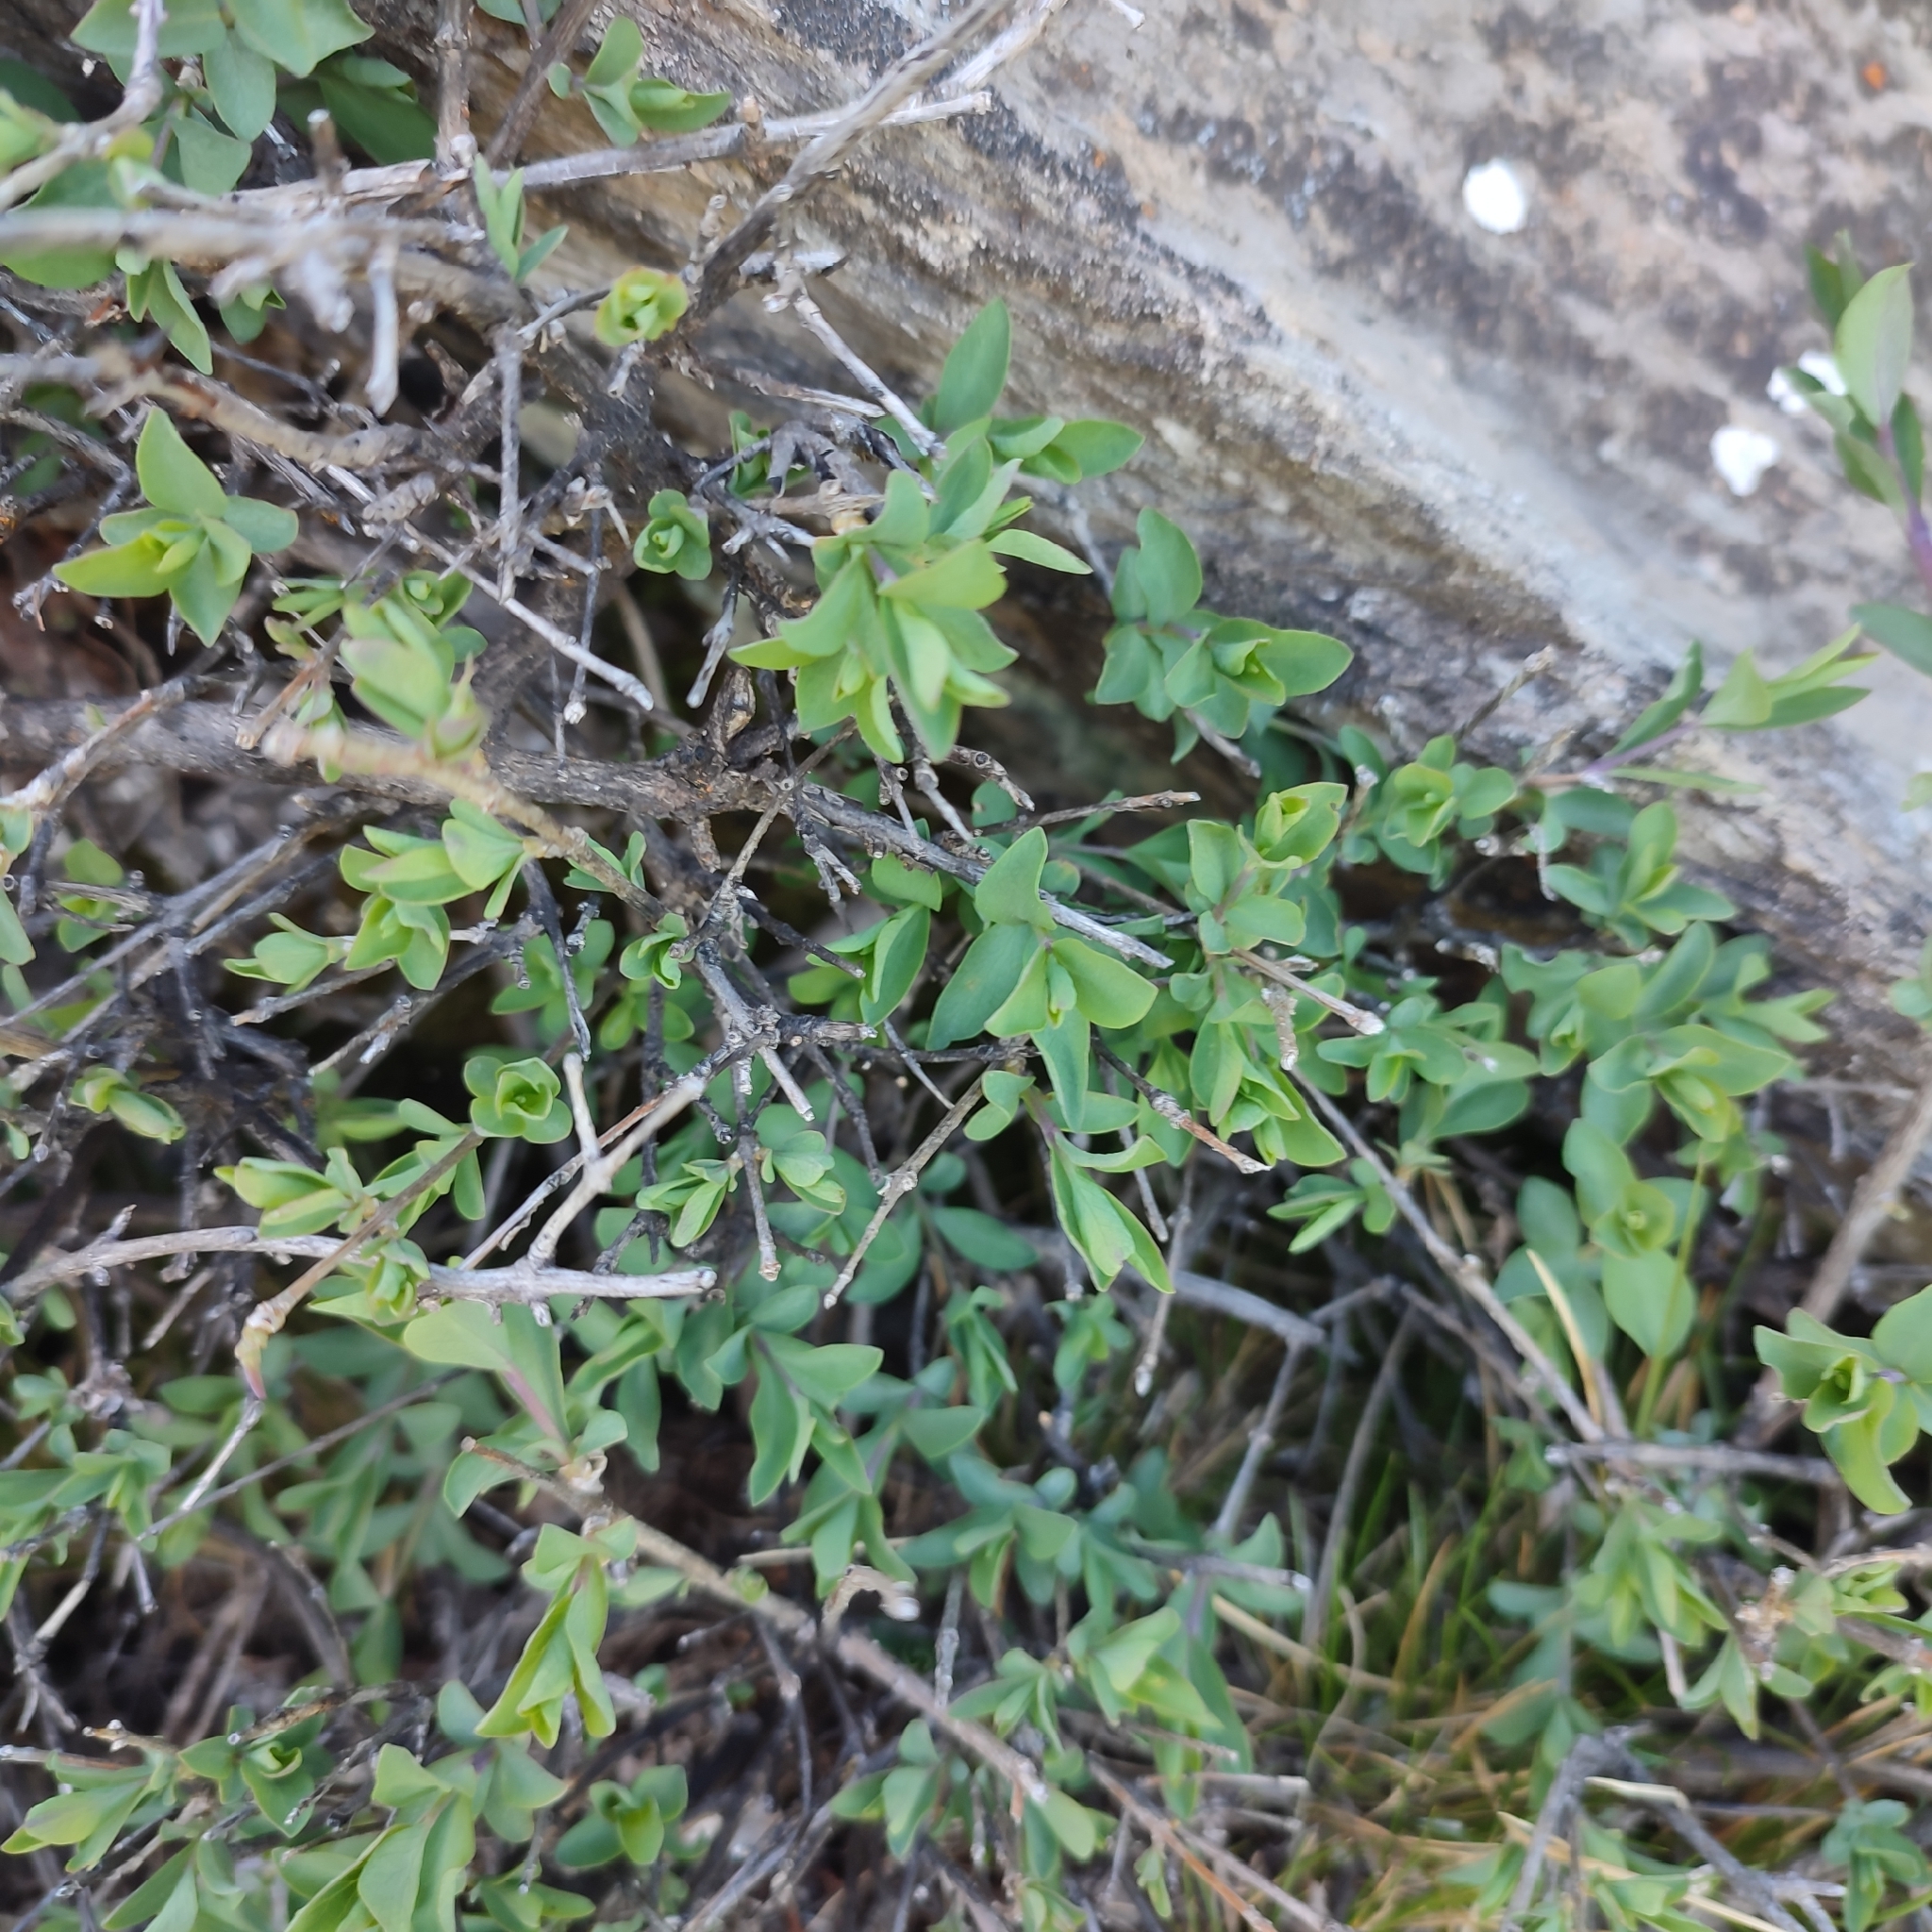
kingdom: Plantae
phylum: Tracheophyta
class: Magnoliopsida
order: Dipsacales
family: Caprifoliaceae
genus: Lonicera
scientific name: Lonicera pyrenaica
